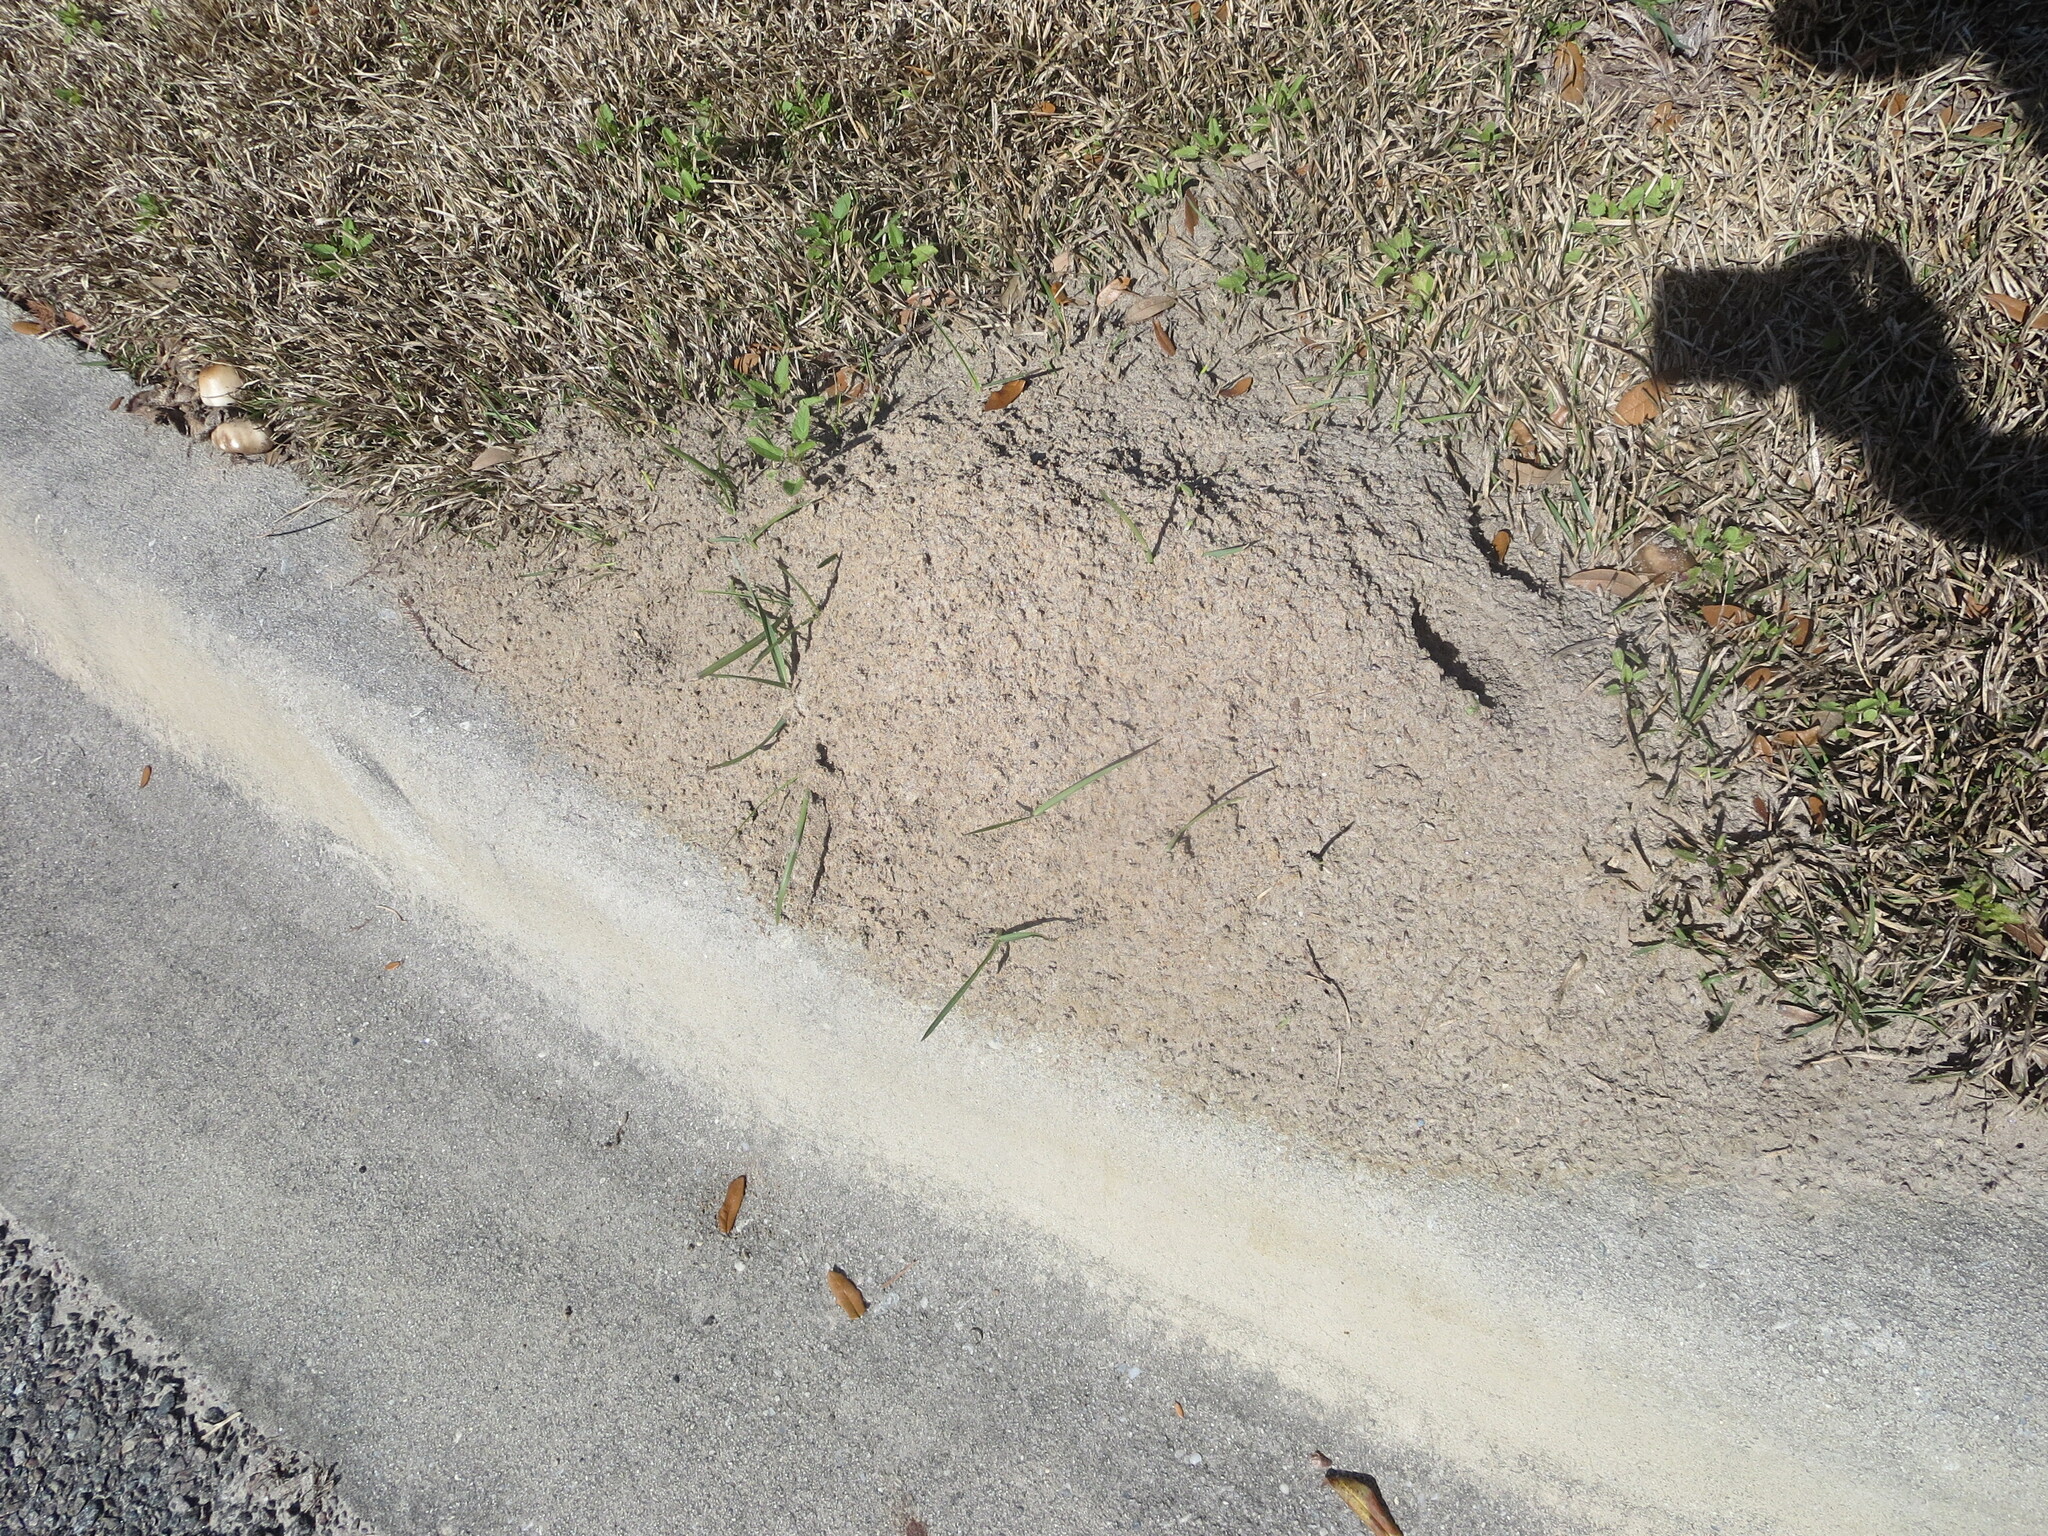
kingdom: Animalia
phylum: Arthropoda
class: Insecta
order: Hymenoptera
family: Formicidae
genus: Solenopsis
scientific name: Solenopsis invicta
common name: Red imported fire ant
